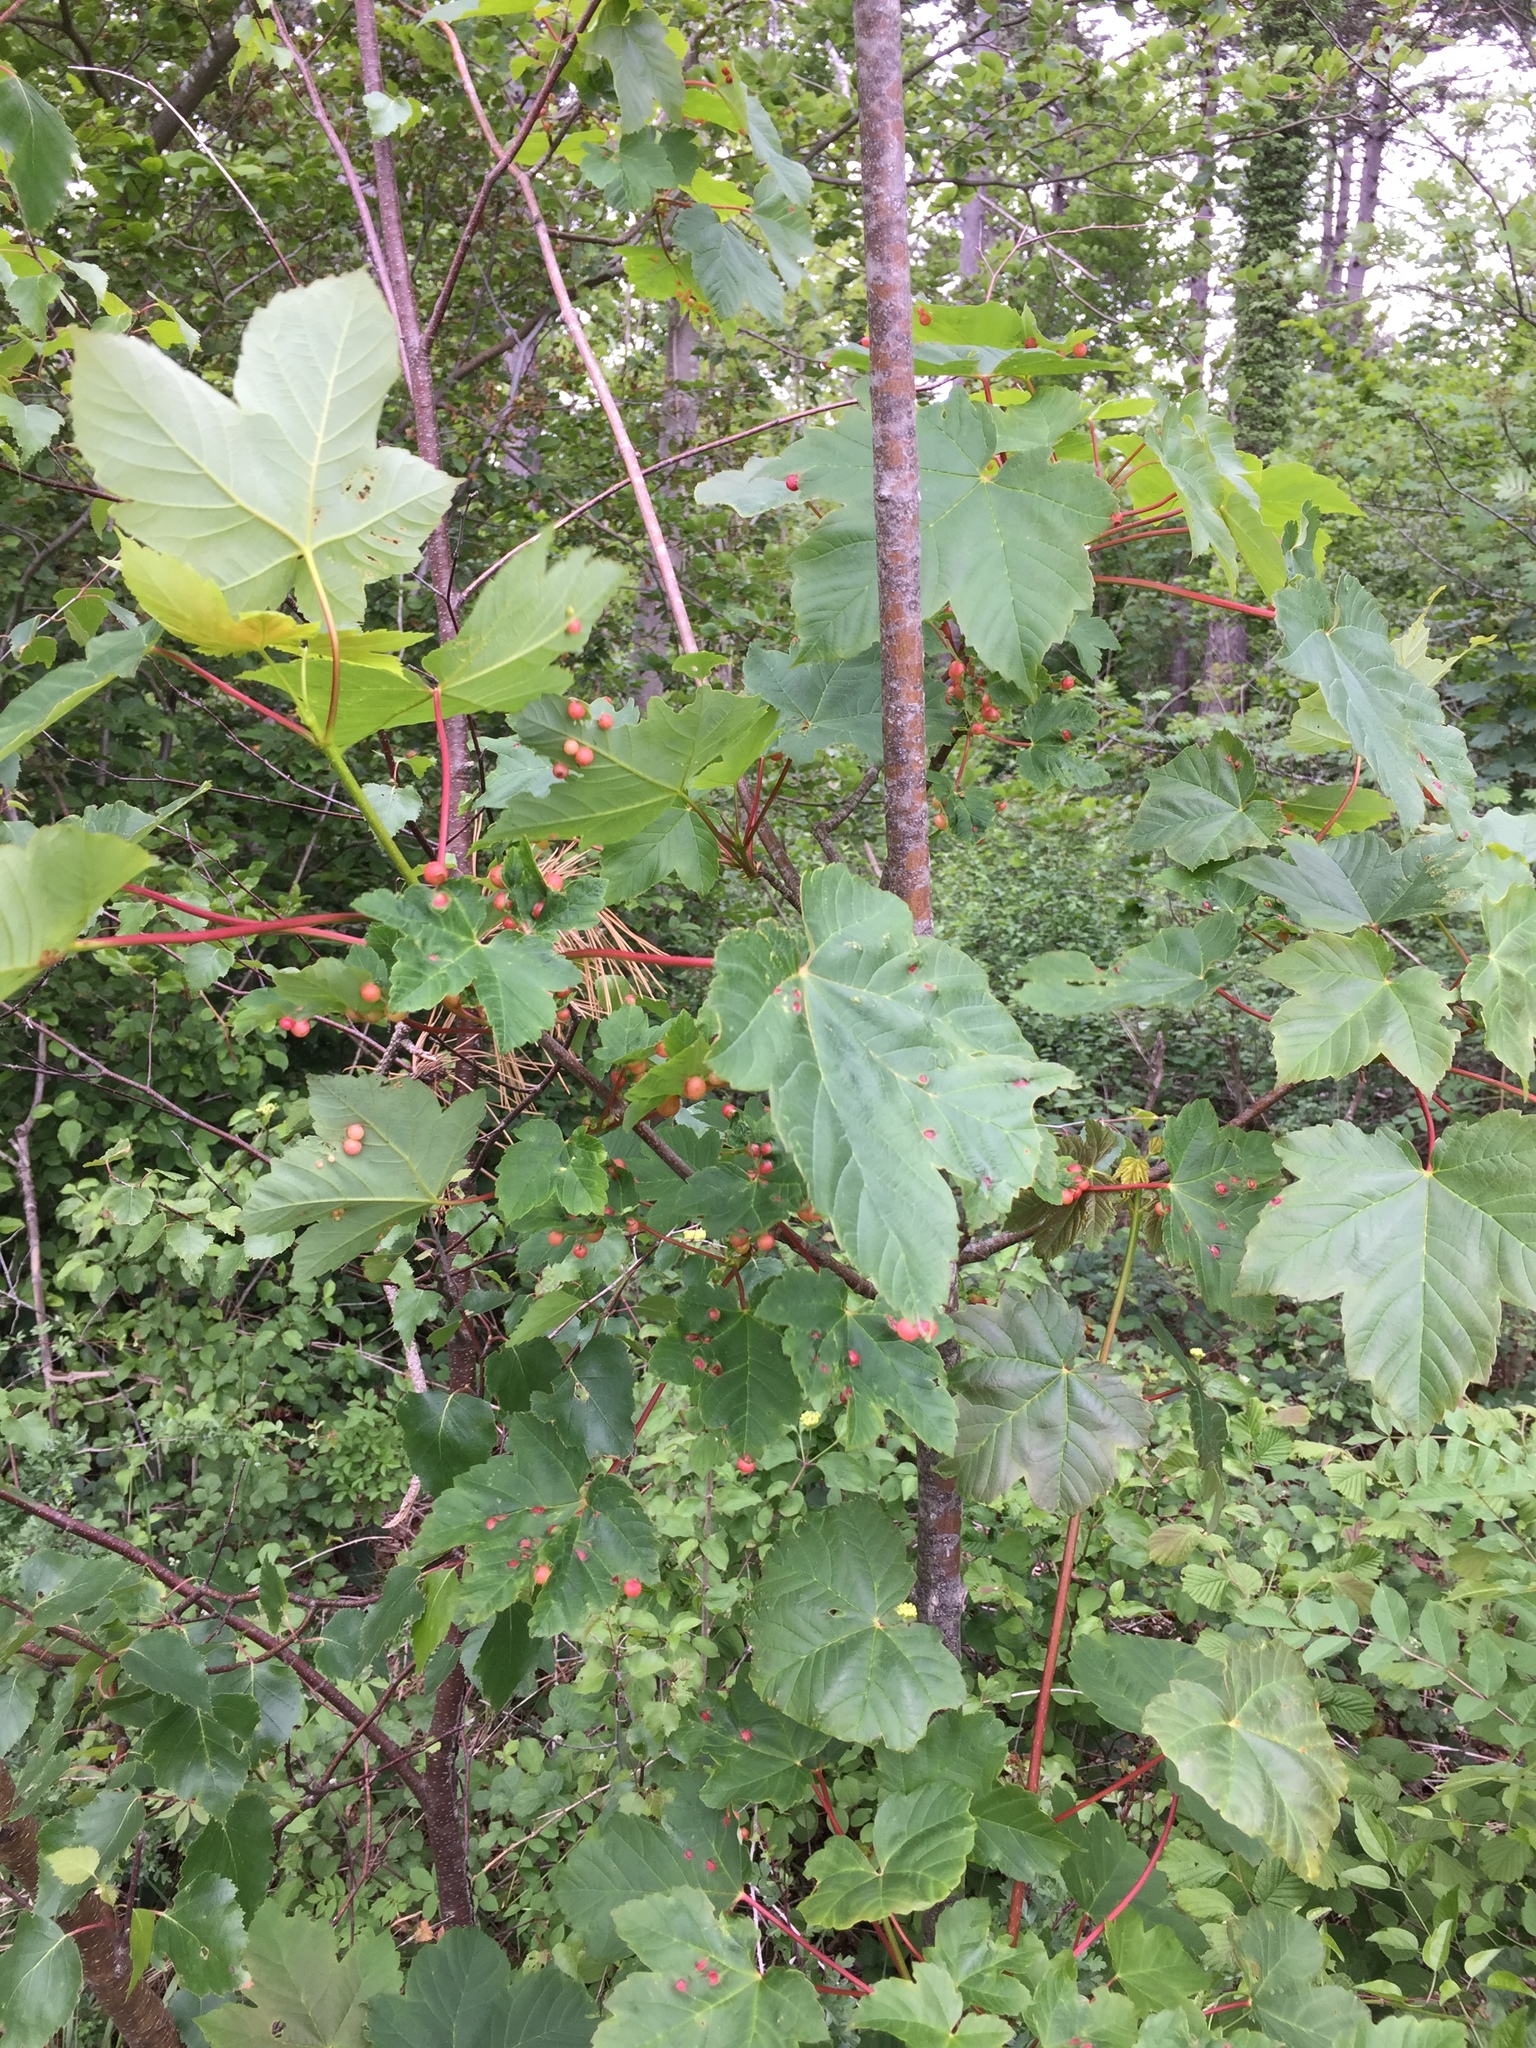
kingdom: Animalia
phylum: Arthropoda
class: Insecta
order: Hymenoptera
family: Cynipidae
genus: Pediaspis
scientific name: Pediaspis aceris
